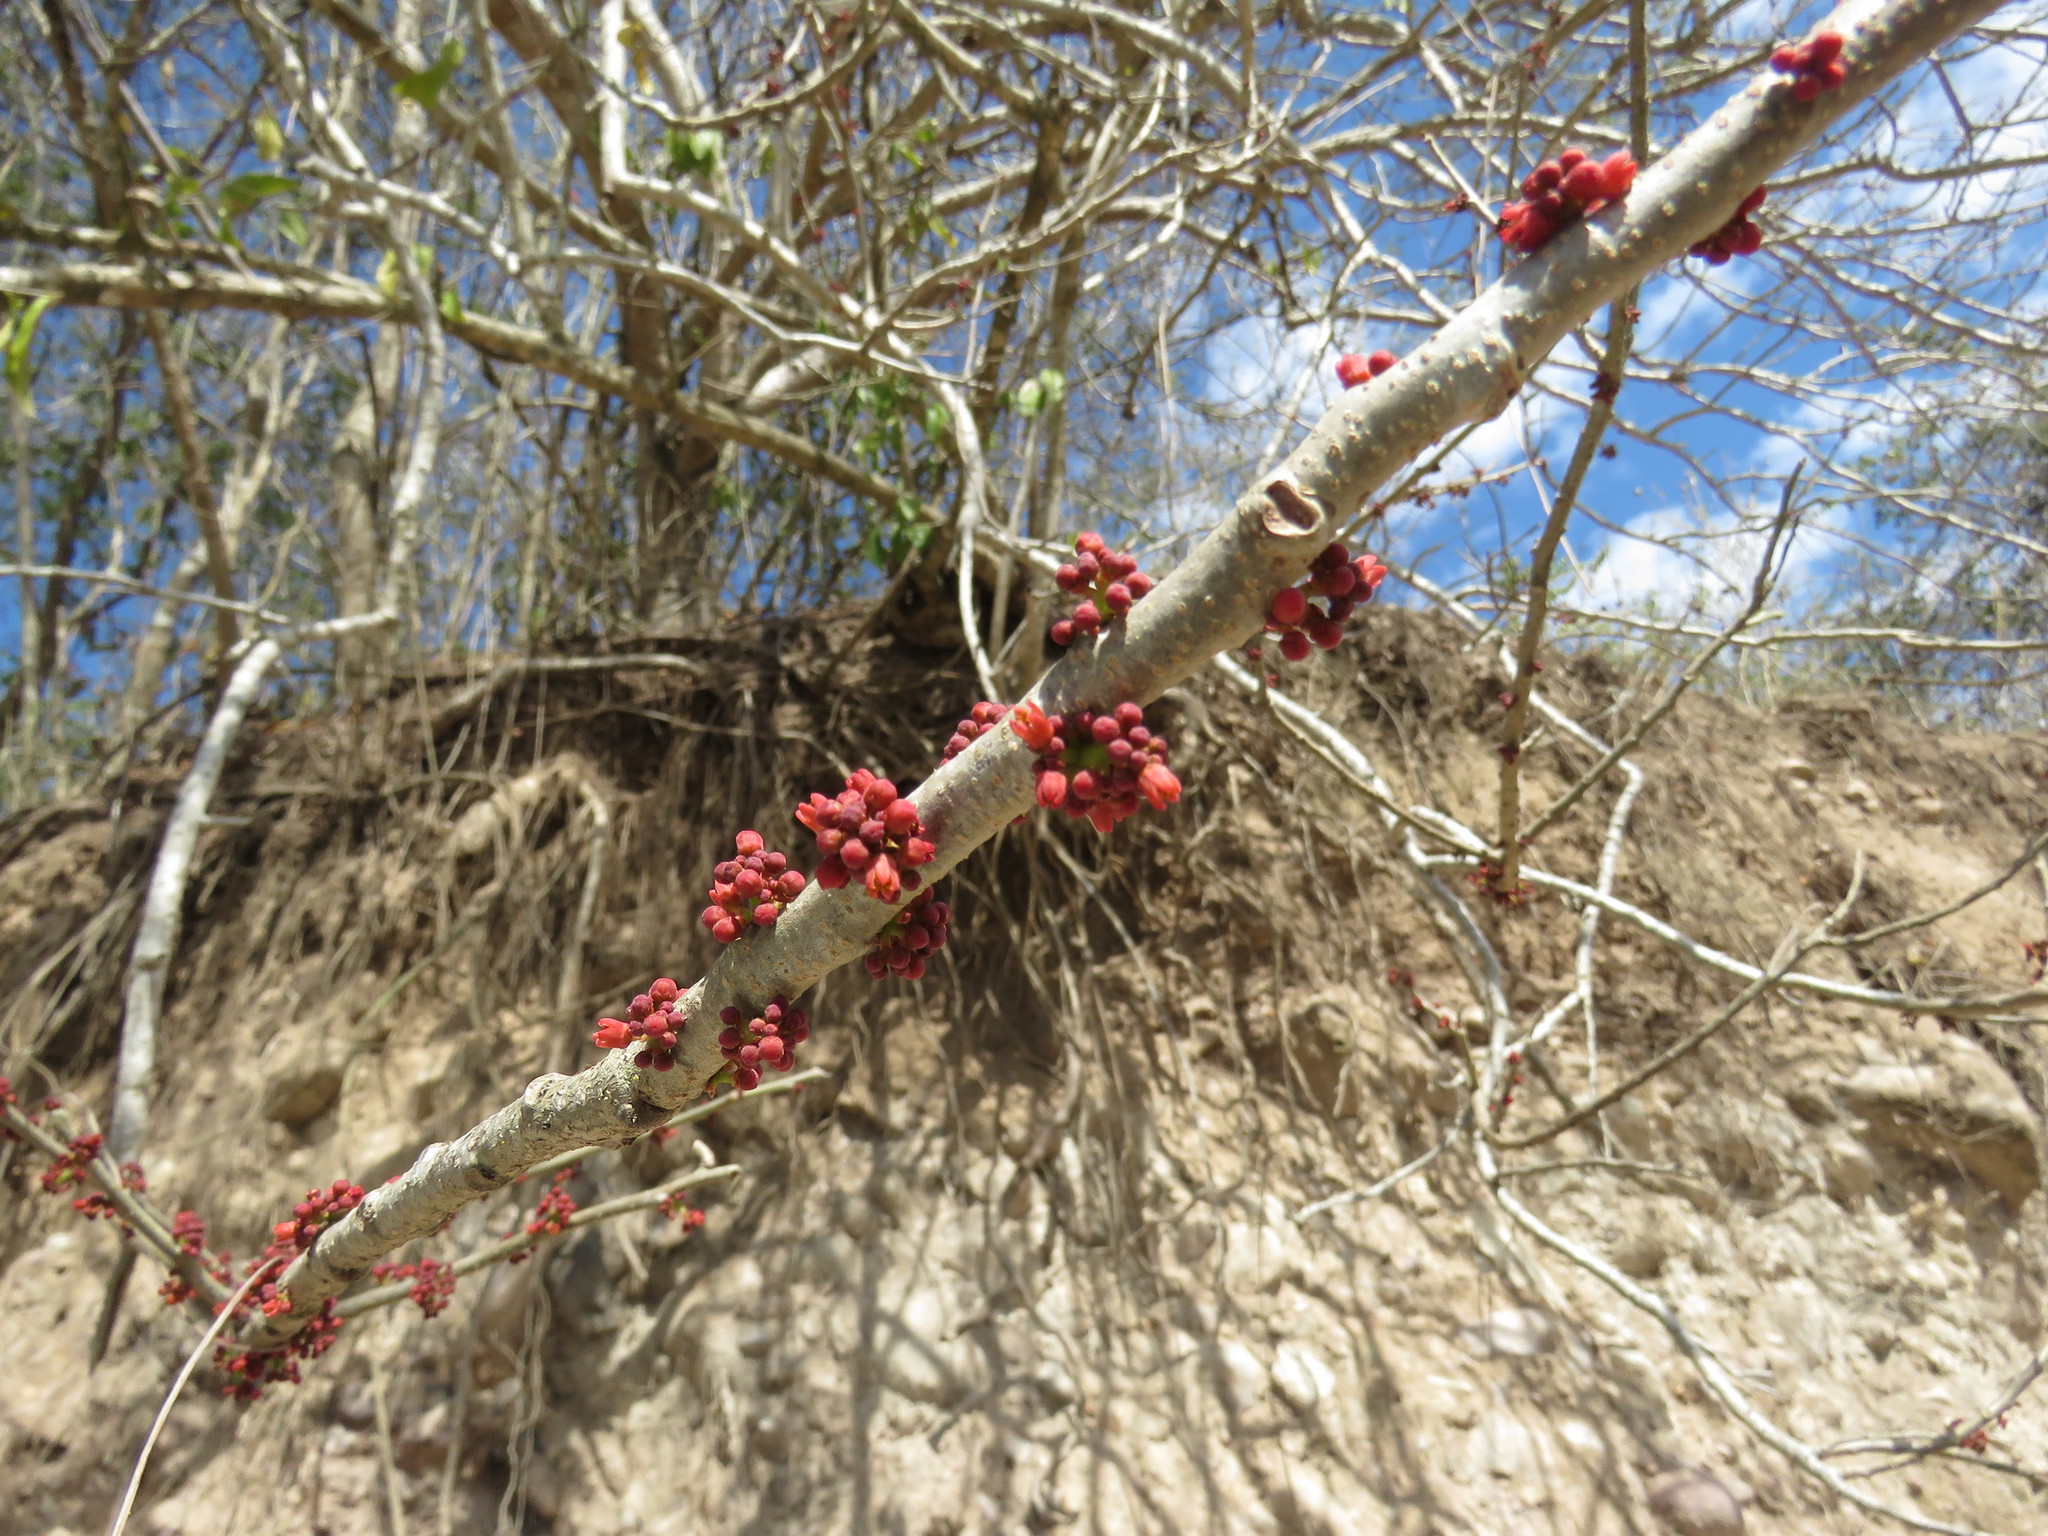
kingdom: Plantae
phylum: Tracheophyta
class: Magnoliopsida
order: Sapindales
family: Anacardiaceae
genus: Spondias
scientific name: Spondias purpurea
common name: Purple mombin
